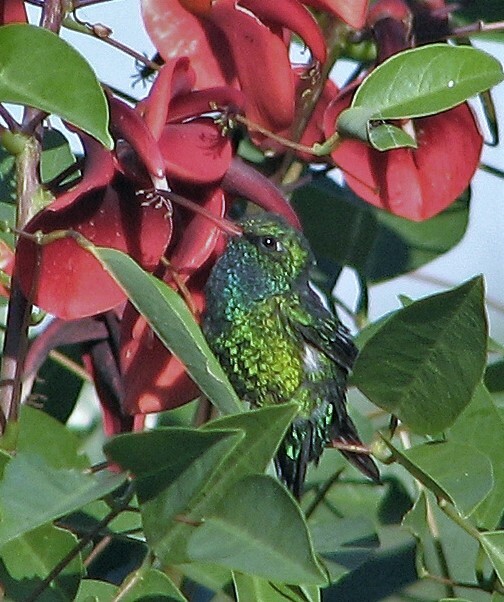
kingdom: Animalia
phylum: Chordata
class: Aves
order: Apodiformes
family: Trochilidae
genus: Chlorostilbon
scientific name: Chlorostilbon lucidus
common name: Glittering-bellied emerald
